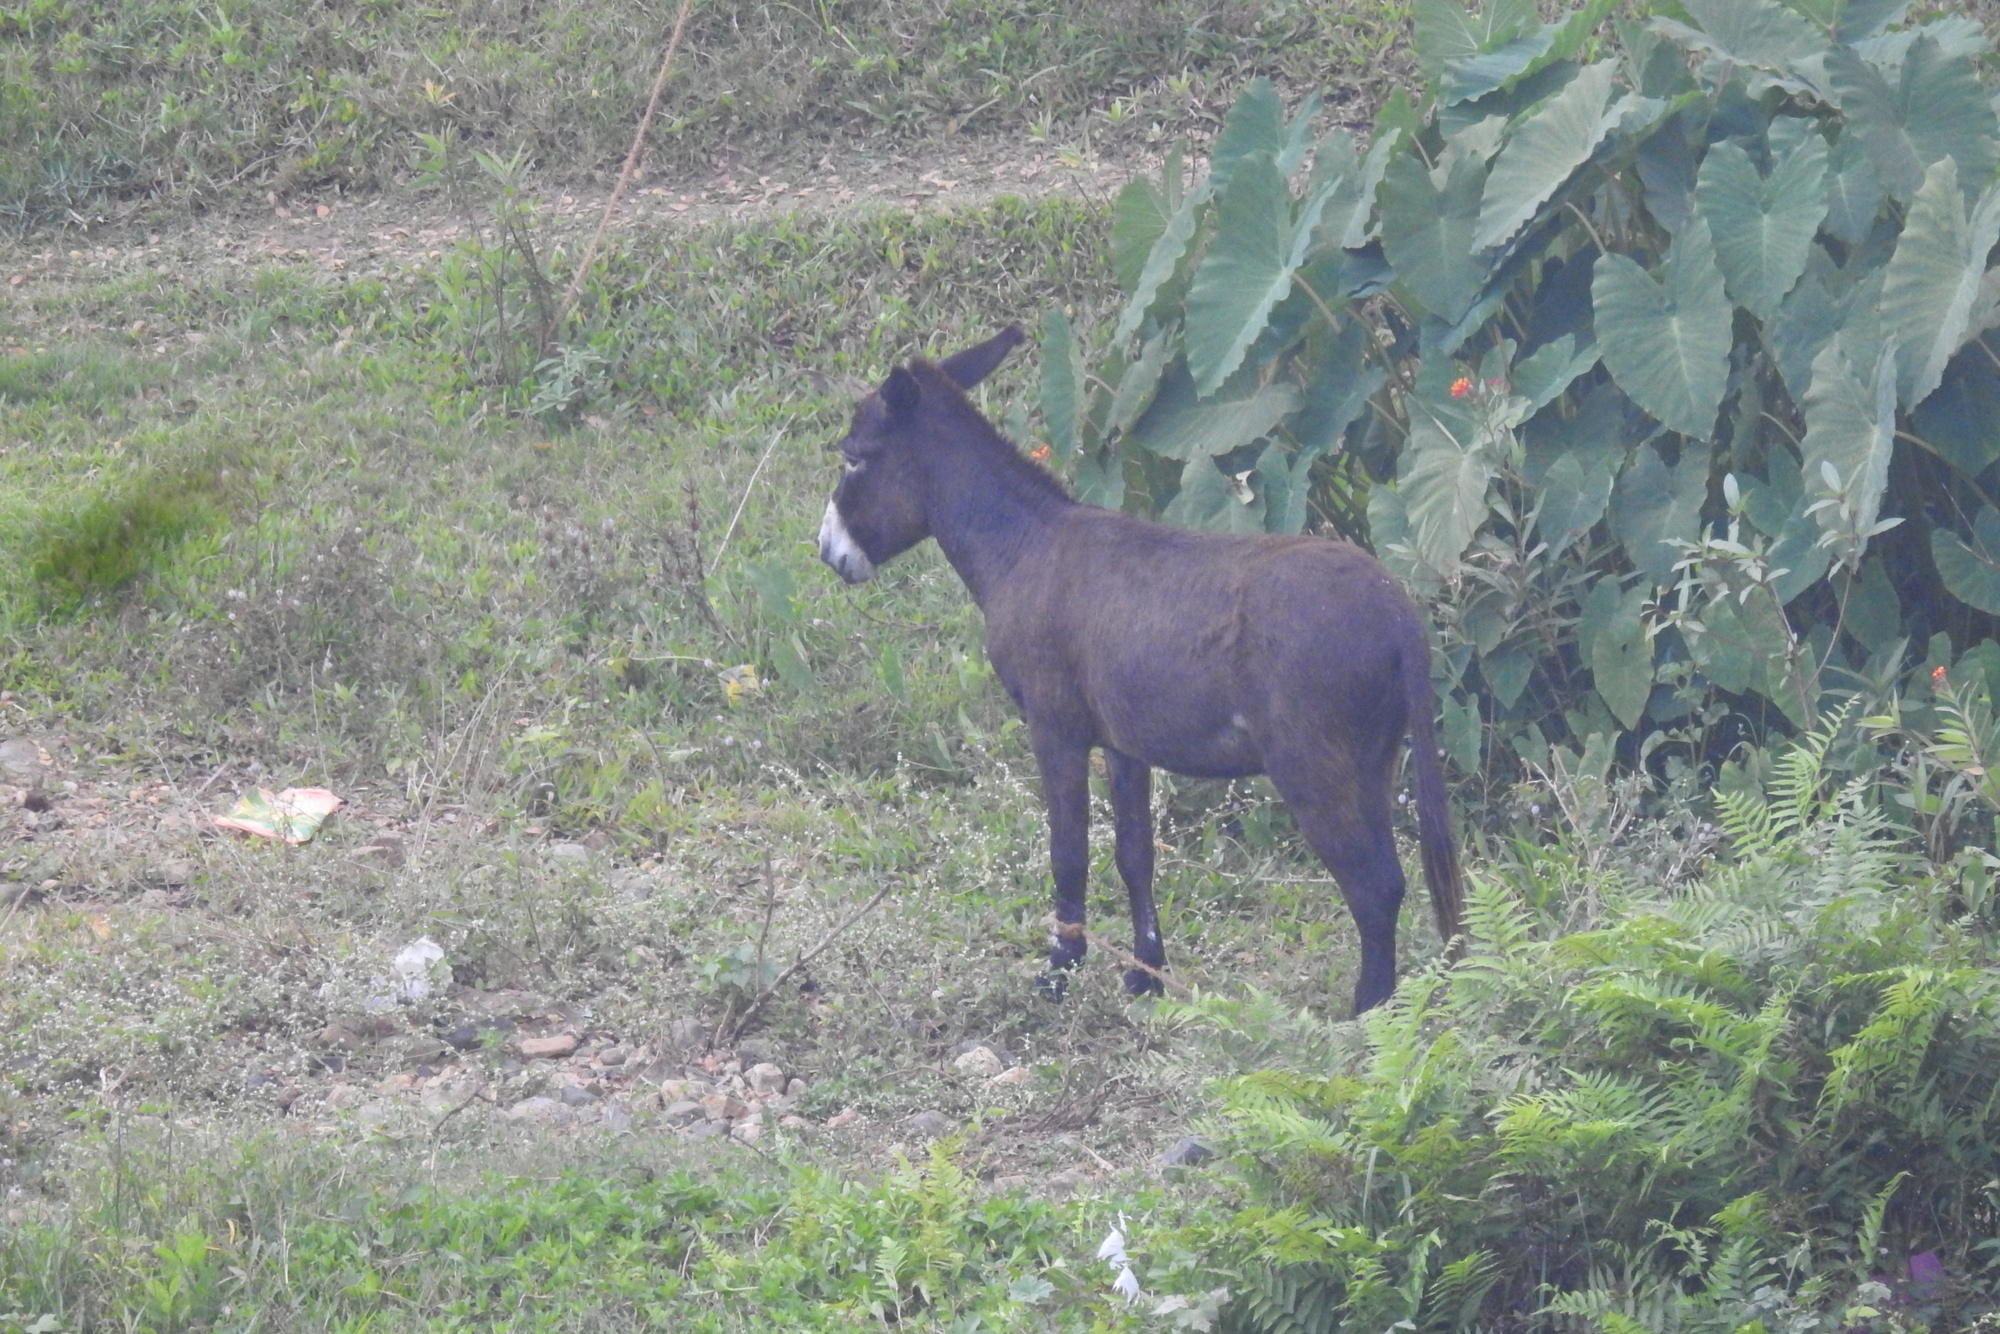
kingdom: Animalia
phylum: Chordata
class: Mammalia
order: Perissodactyla
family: Equidae
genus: Equus
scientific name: Equus asinus
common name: Ass
